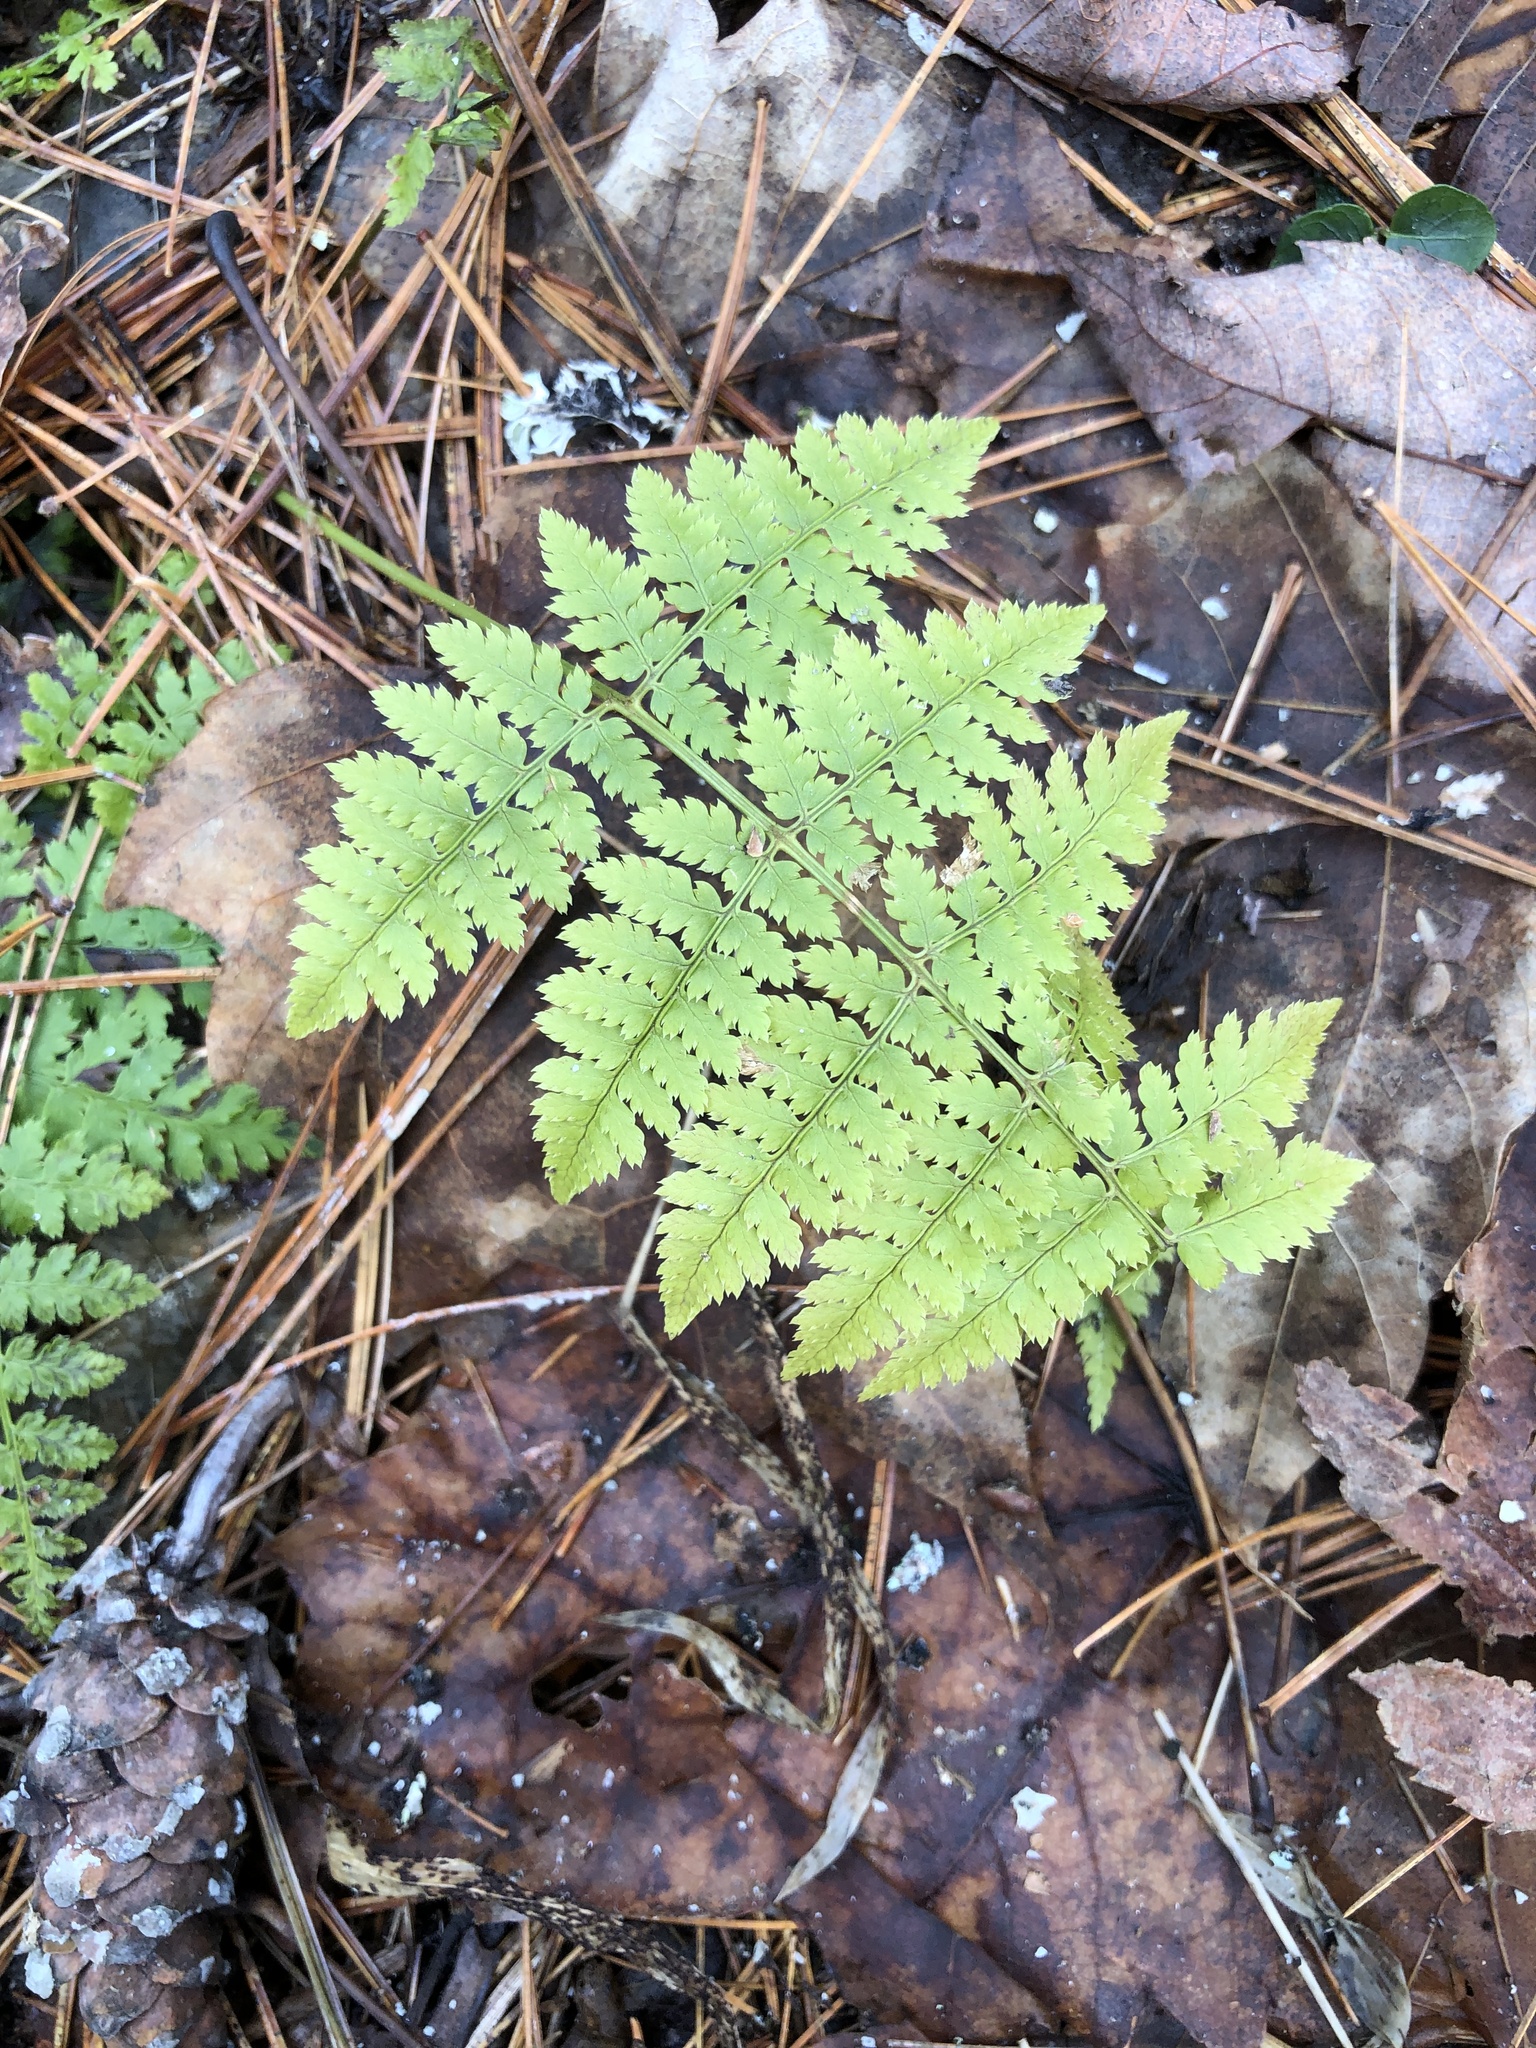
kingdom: Plantae
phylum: Tracheophyta
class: Polypodiopsida
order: Polypodiales
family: Dryopteridaceae
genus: Dryopteris
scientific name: Dryopteris intermedia
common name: Evergreen wood fern
